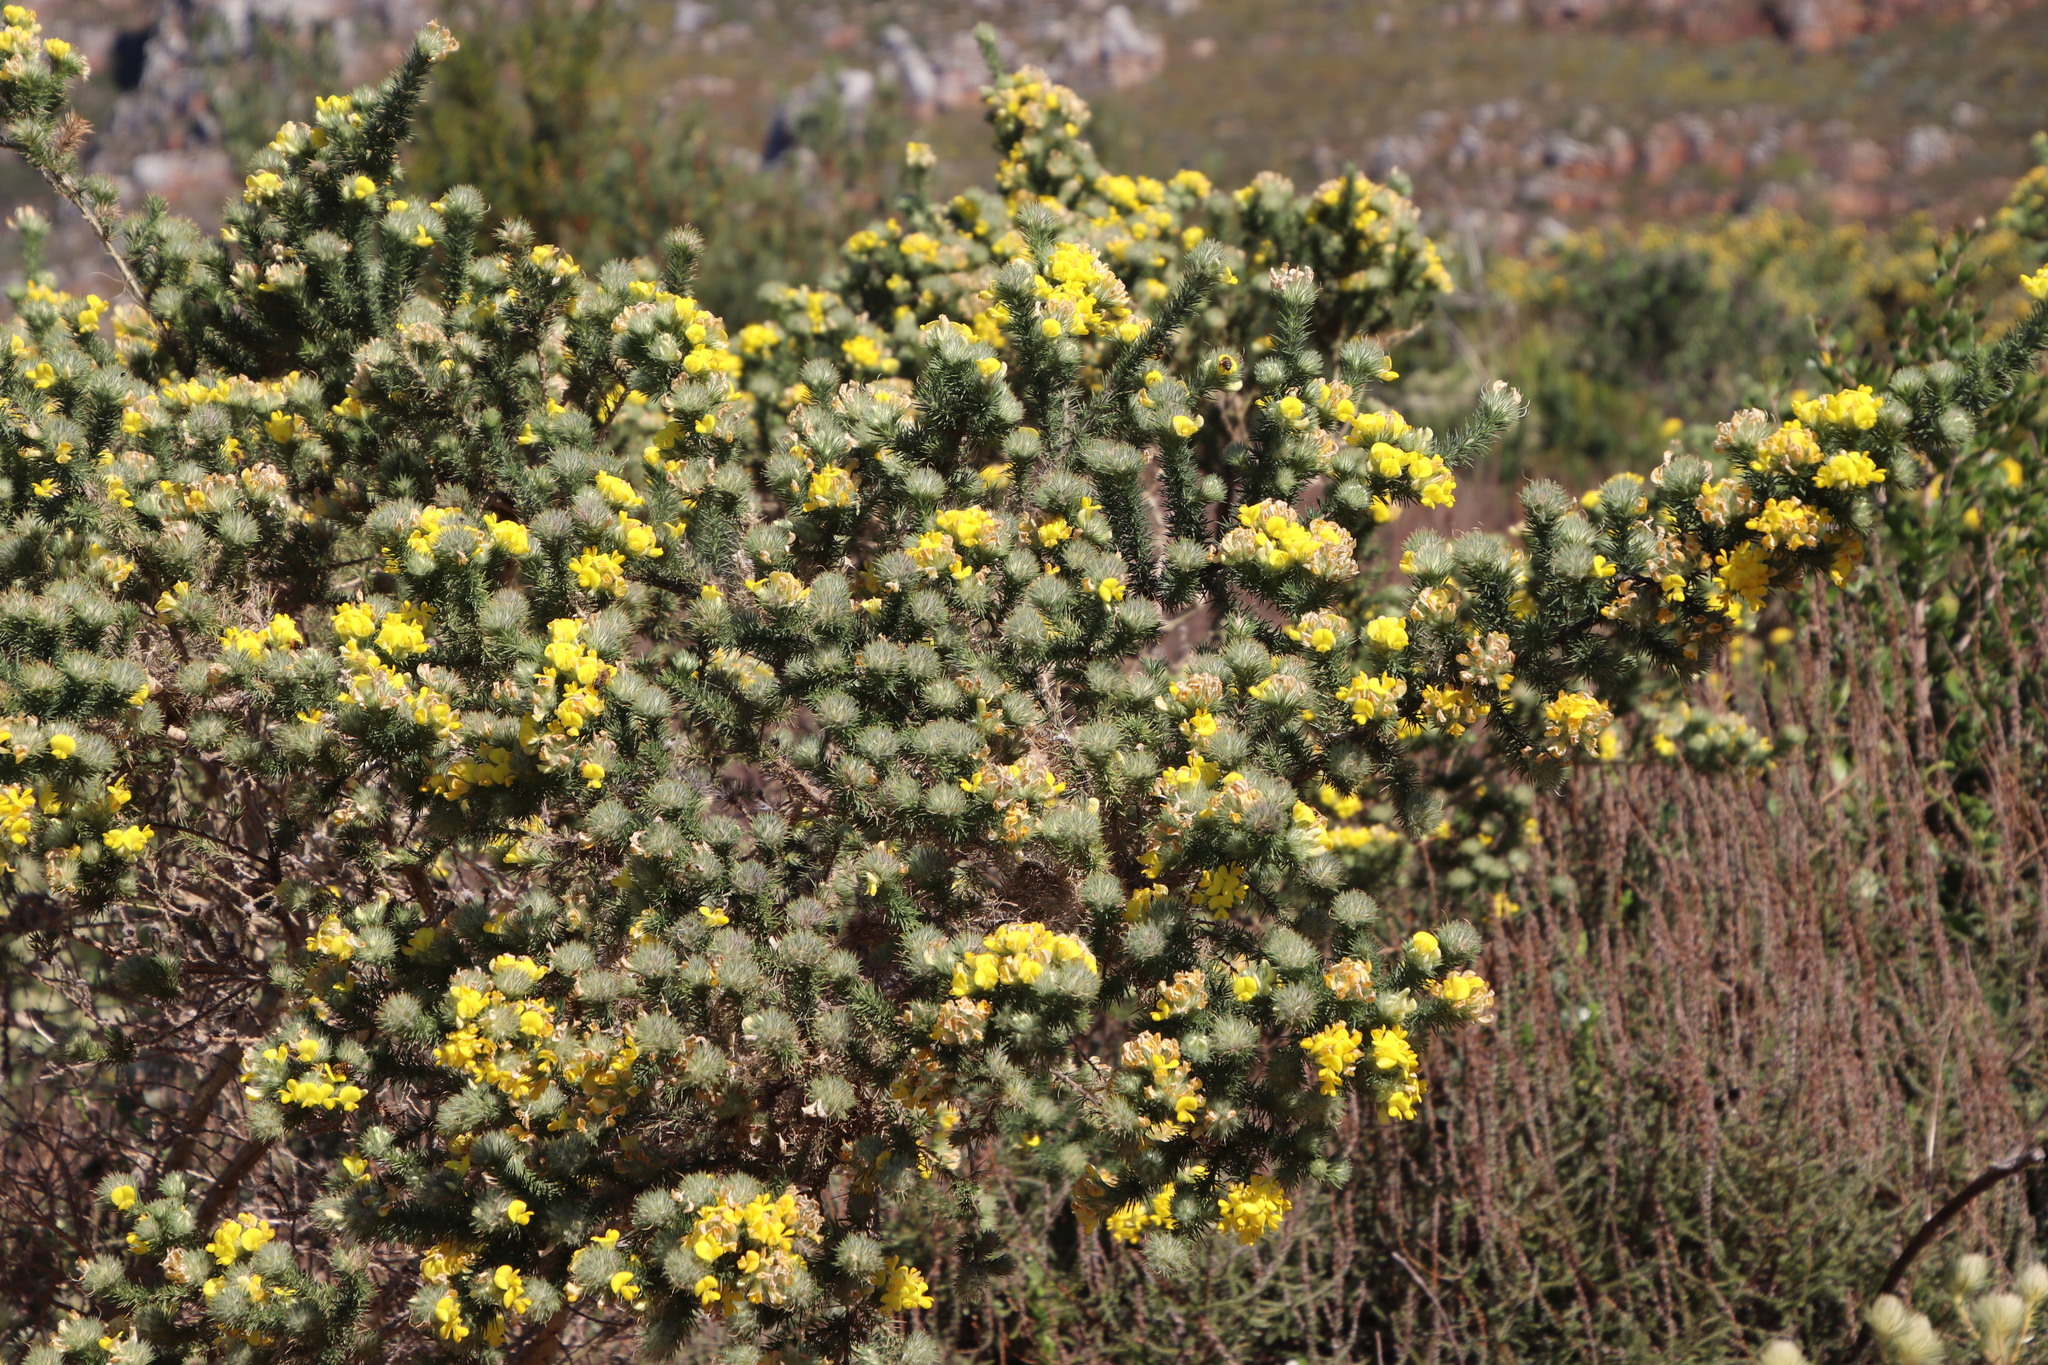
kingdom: Plantae
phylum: Tracheophyta
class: Magnoliopsida
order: Fabales
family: Fabaceae
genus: Aspalathus
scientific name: Aspalathus chenopoda
